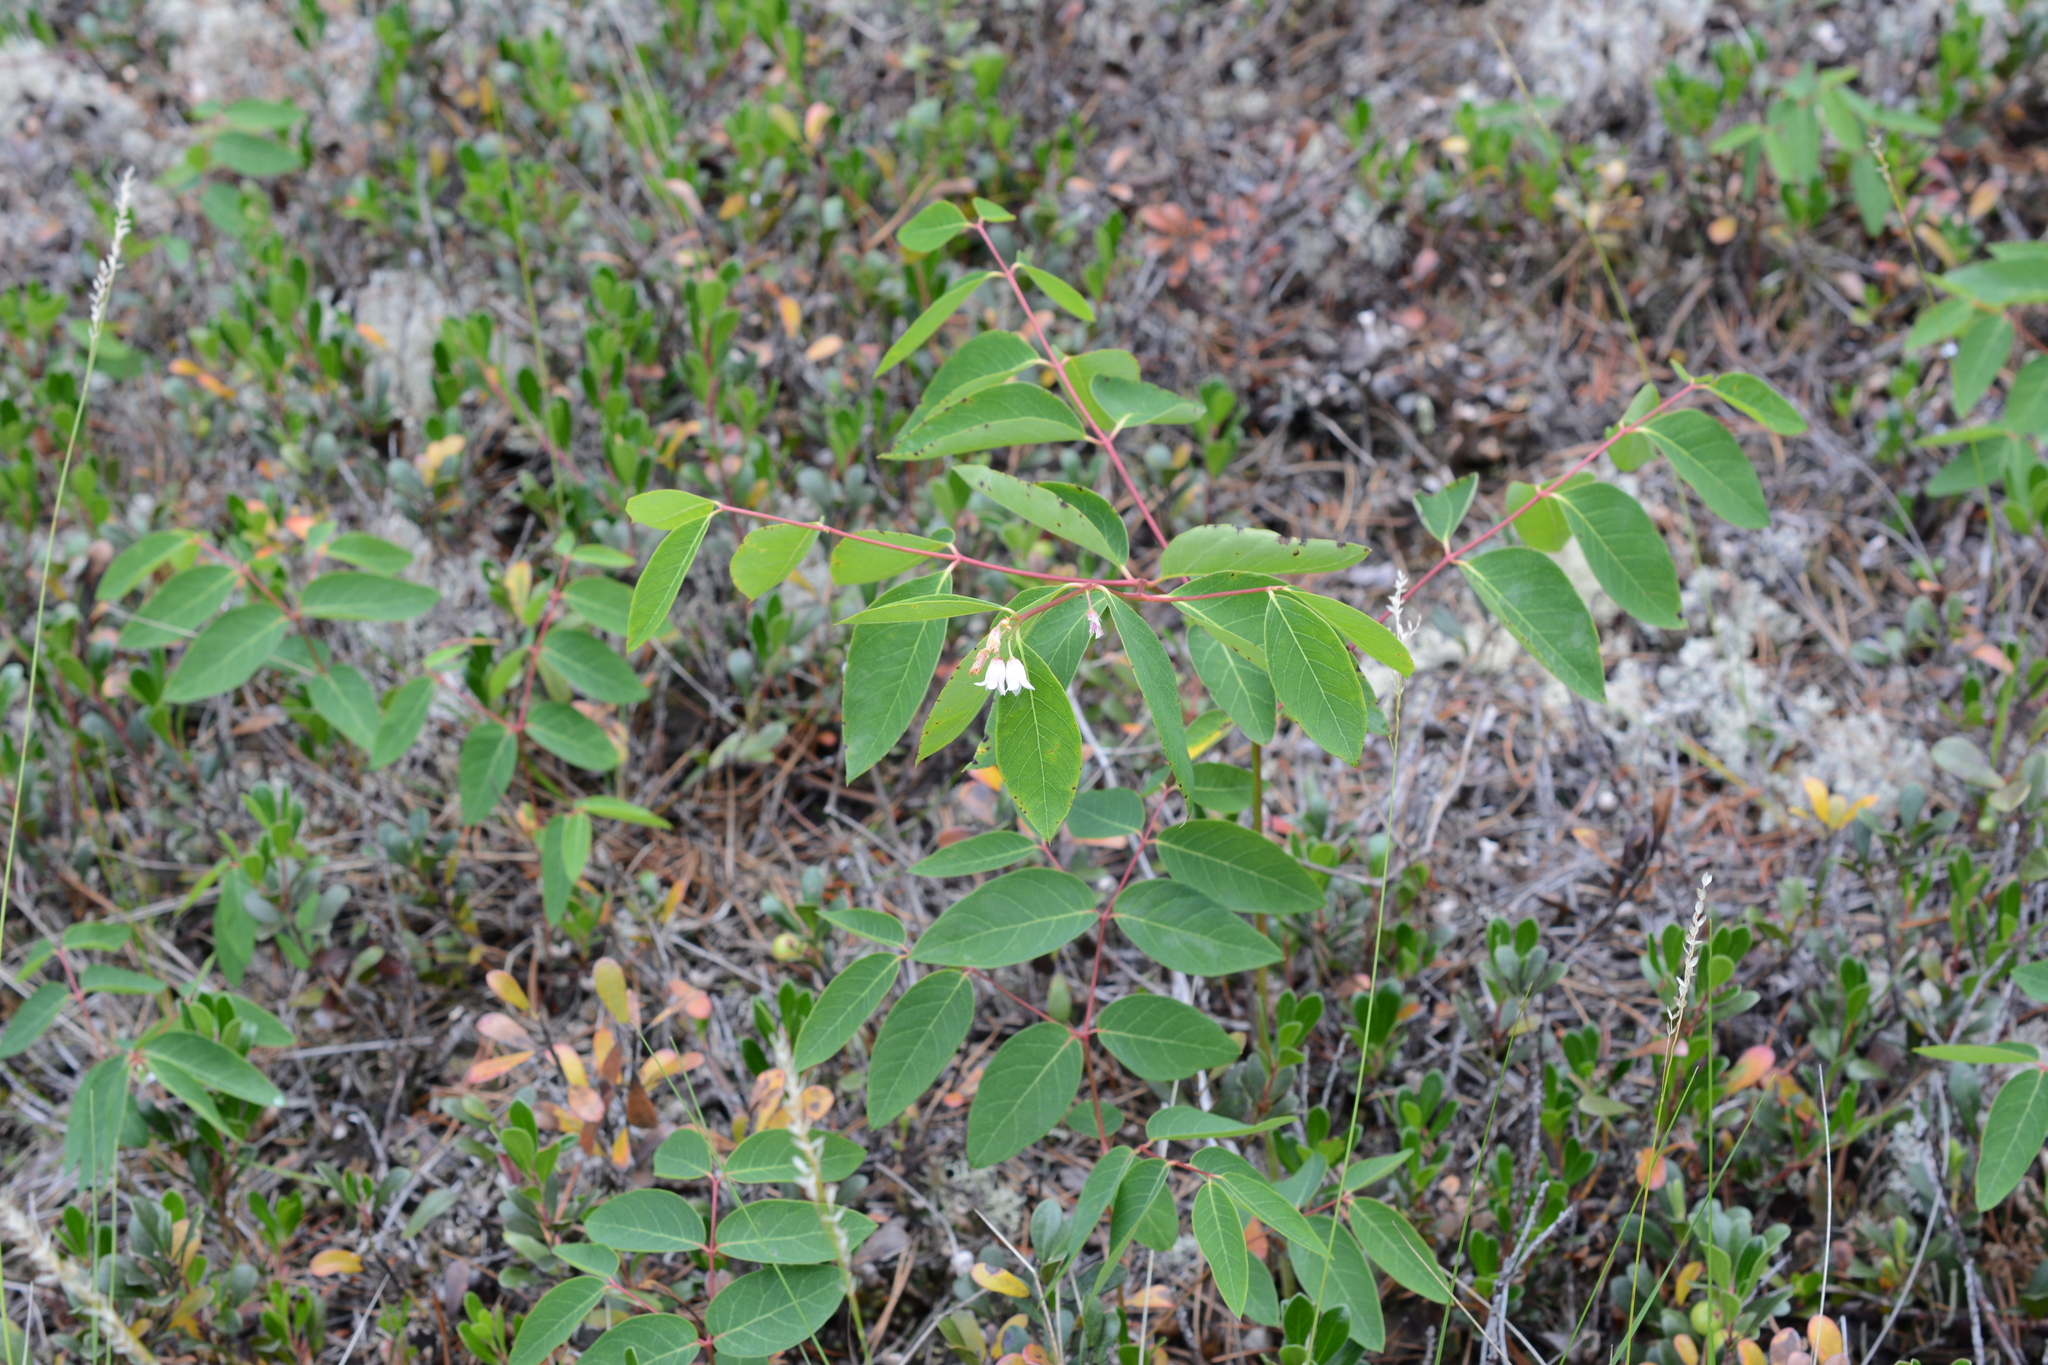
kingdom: Plantae
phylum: Tracheophyta
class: Magnoliopsida
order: Gentianales
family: Apocynaceae
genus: Apocynum
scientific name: Apocynum androsaemifolium
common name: Spreading dogbane
